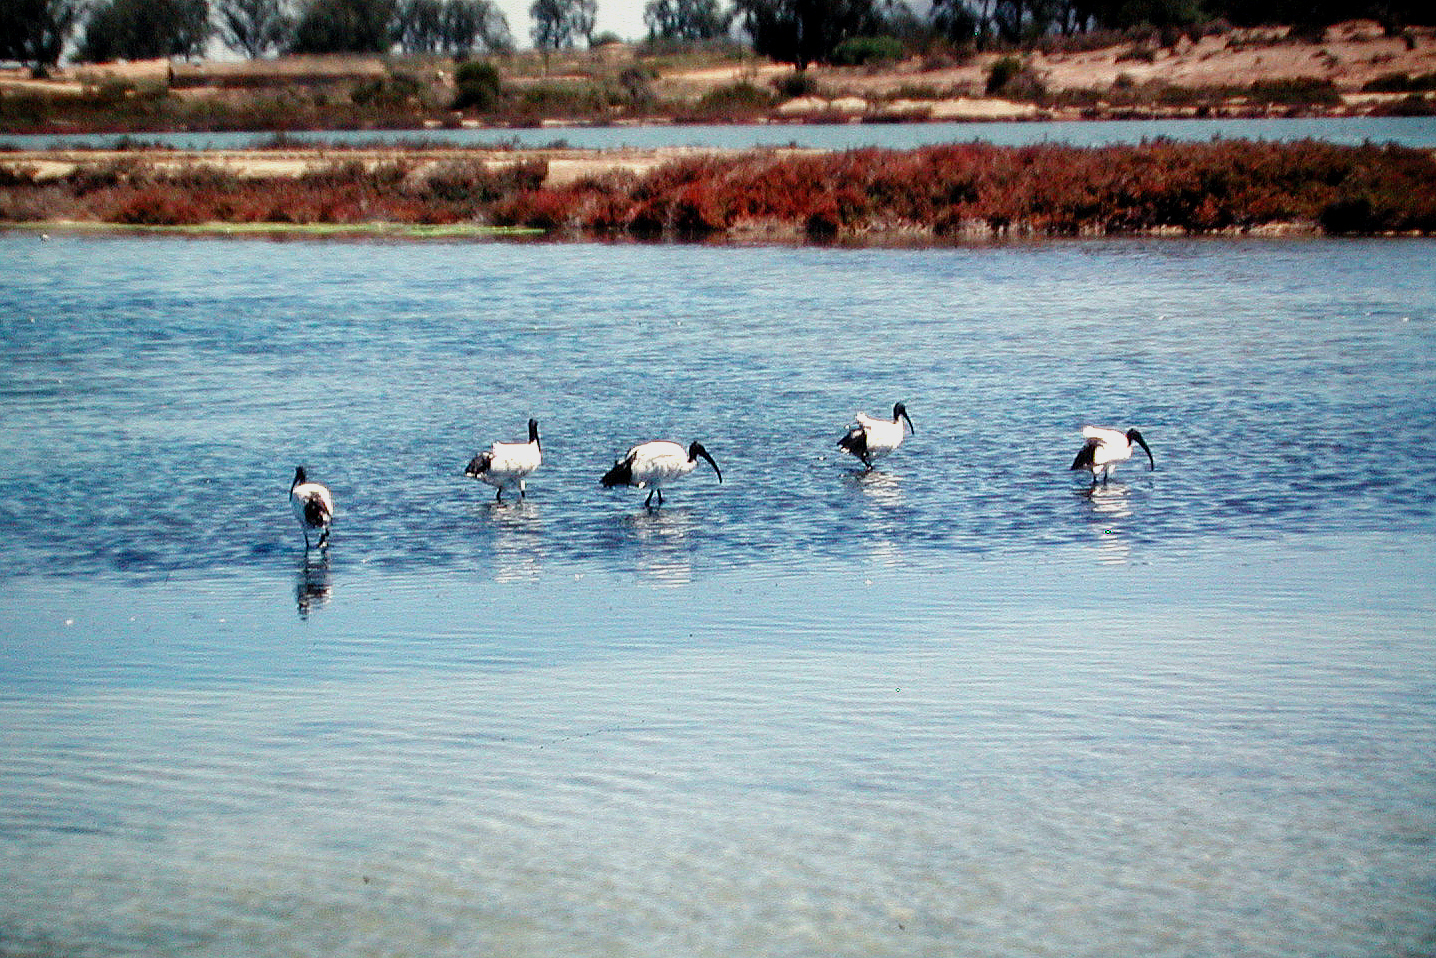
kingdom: Animalia
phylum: Chordata
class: Aves
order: Pelecaniformes
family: Threskiornithidae
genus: Threskiornis
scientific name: Threskiornis aethiopicus
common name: Sacred ibis
